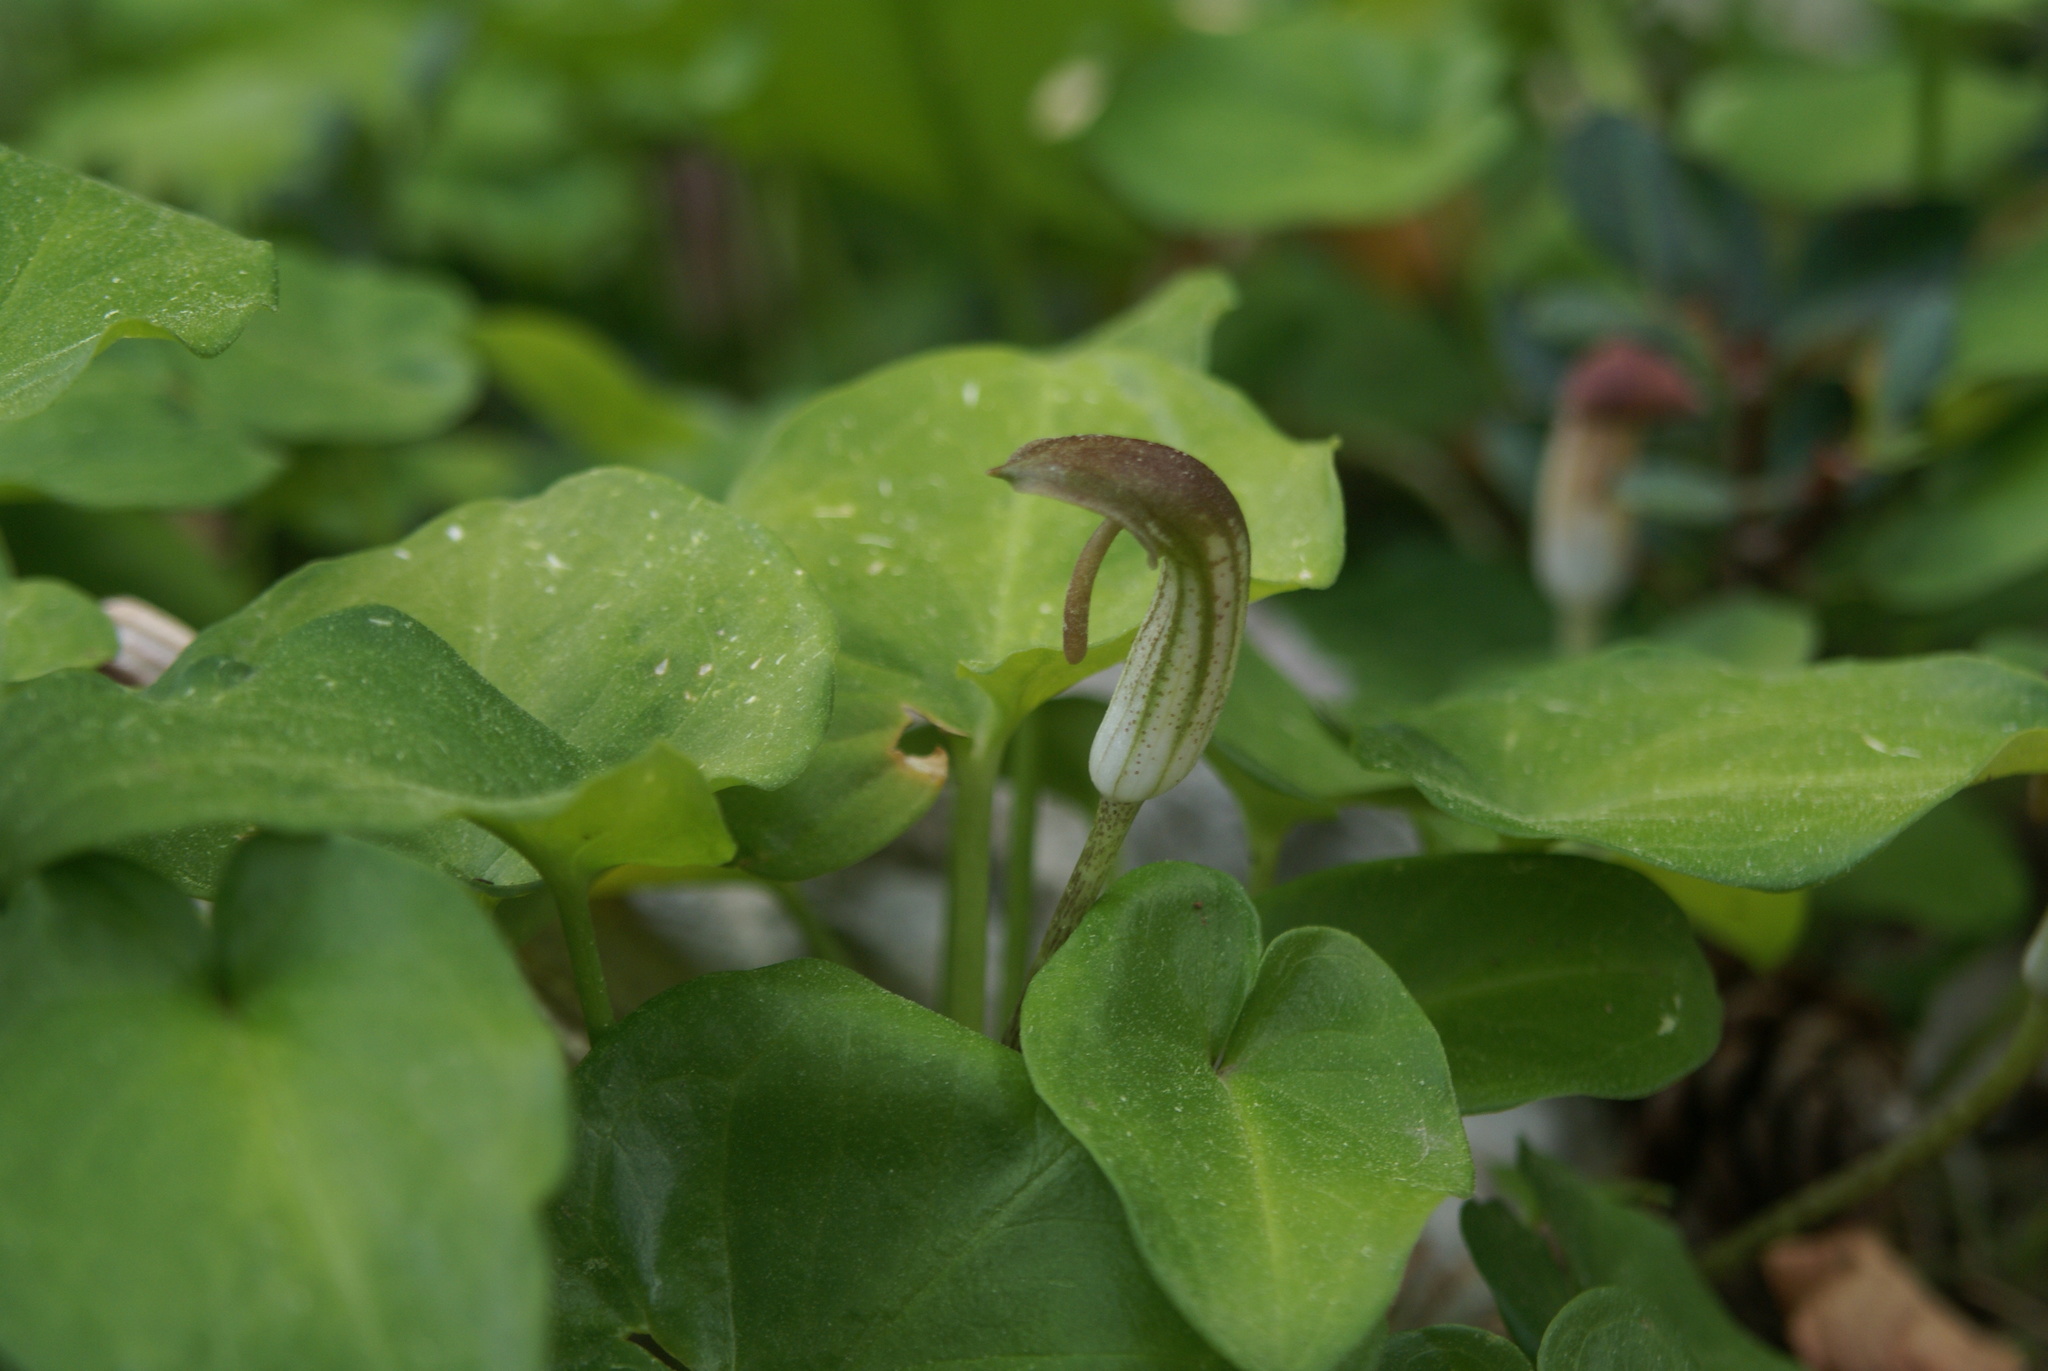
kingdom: Plantae
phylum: Tracheophyta
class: Liliopsida
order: Alismatales
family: Araceae
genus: Arisarum
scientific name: Arisarum vulgare
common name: Common arisarum
